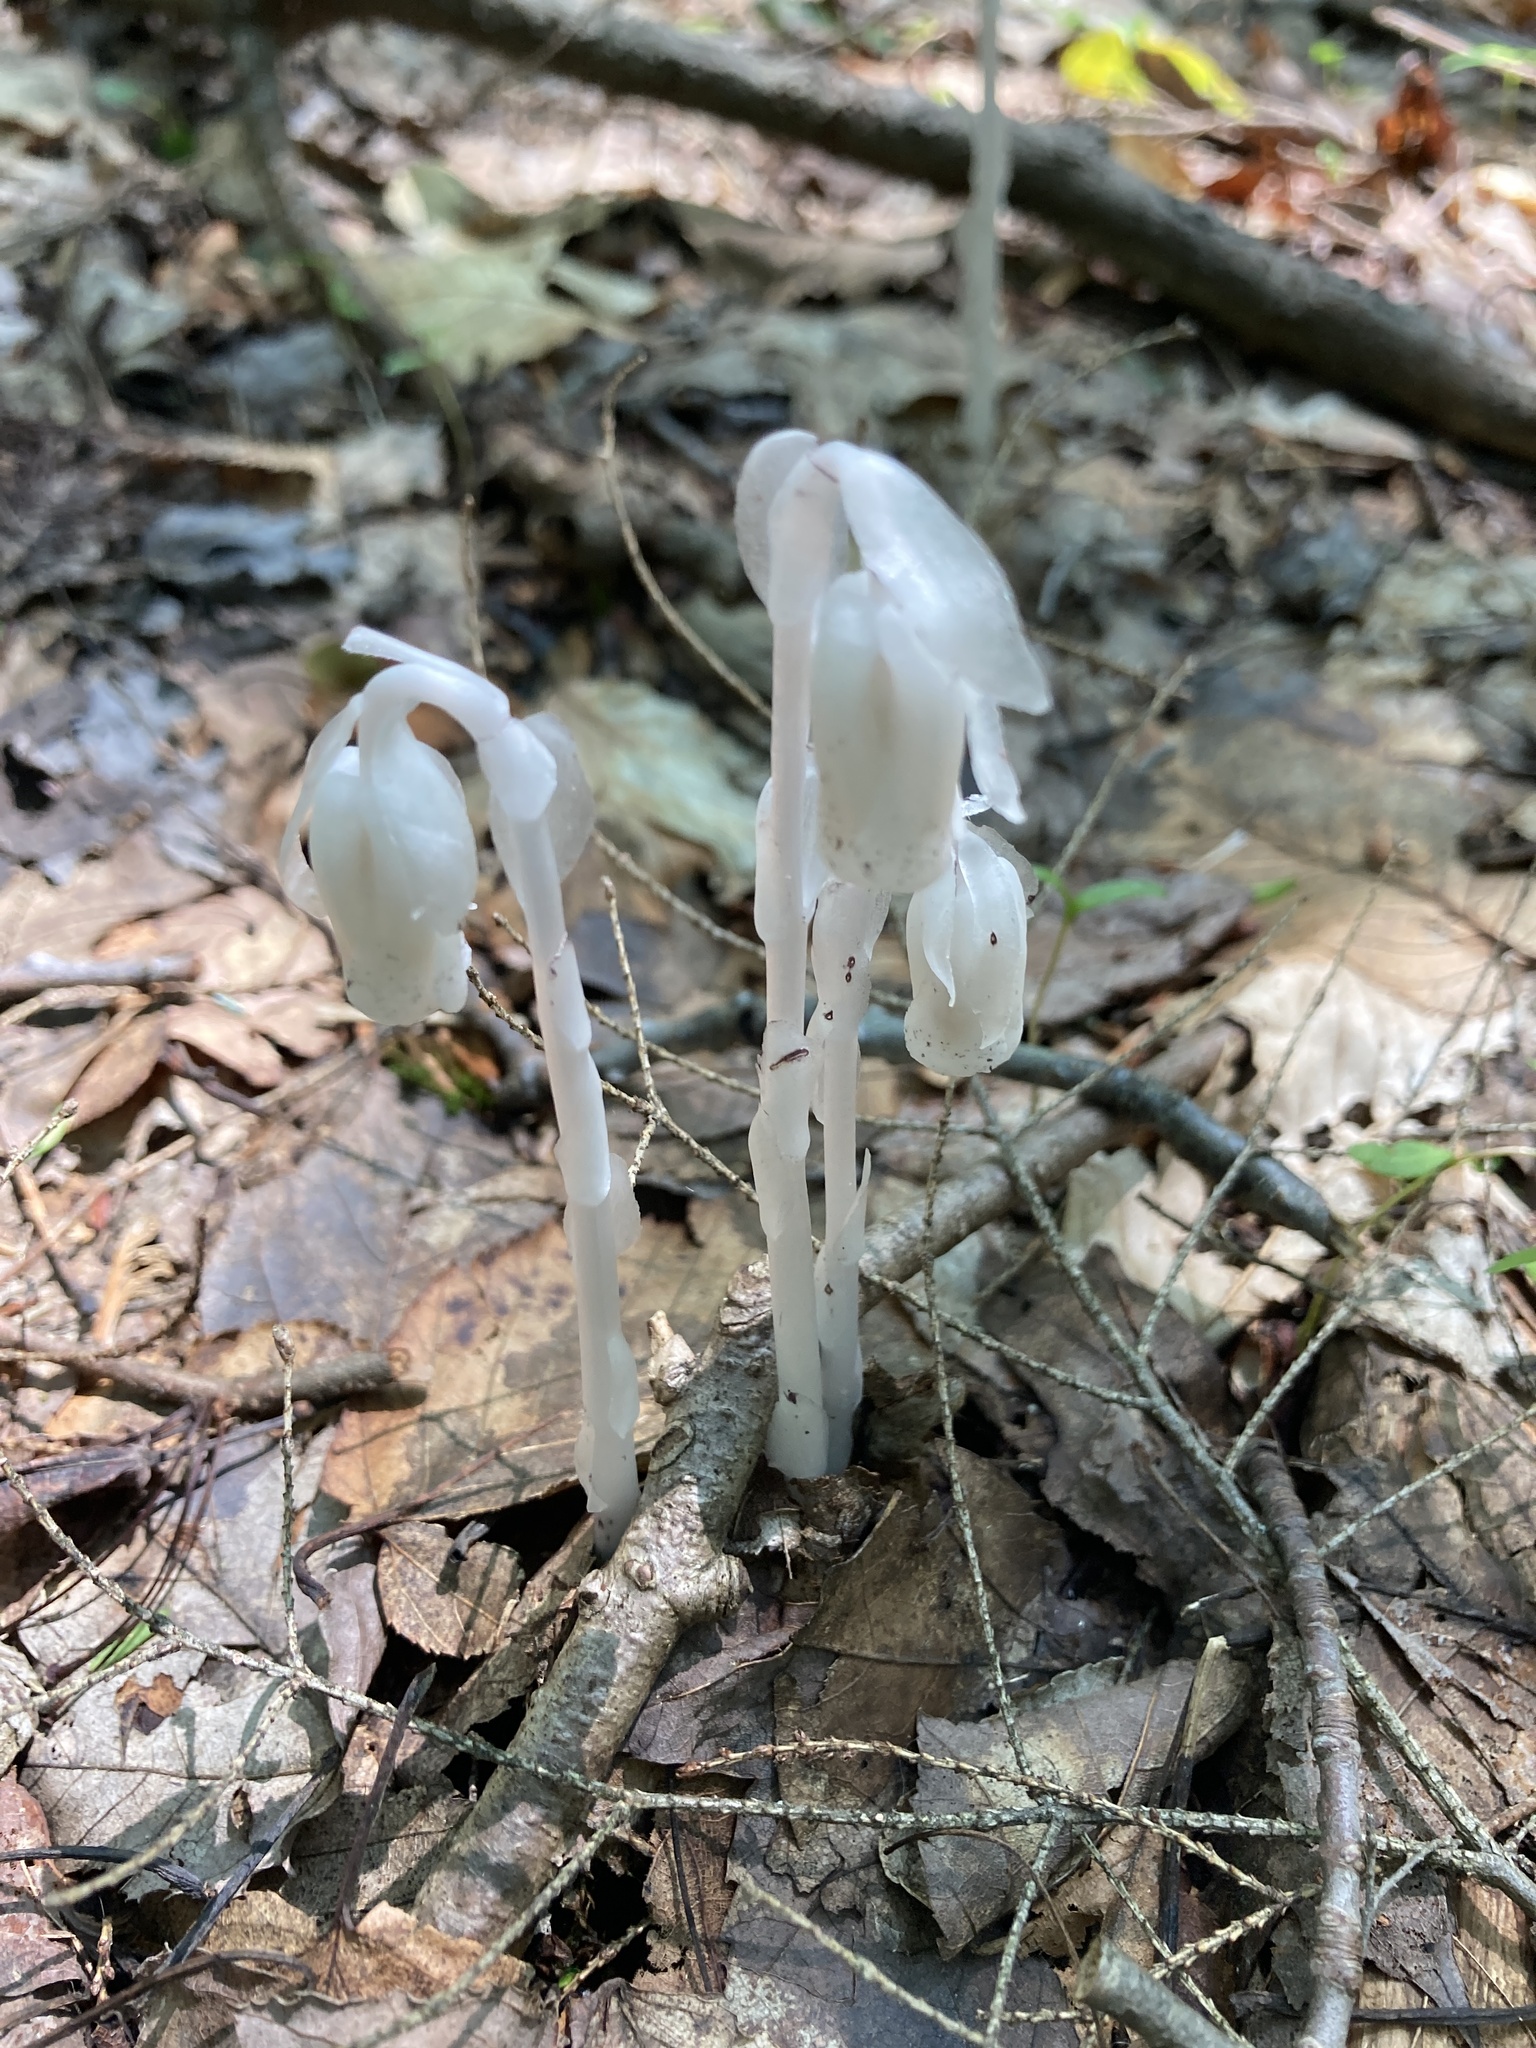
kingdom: Plantae
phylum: Tracheophyta
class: Magnoliopsida
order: Ericales
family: Ericaceae
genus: Monotropa
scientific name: Monotropa uniflora
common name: Convulsion root
